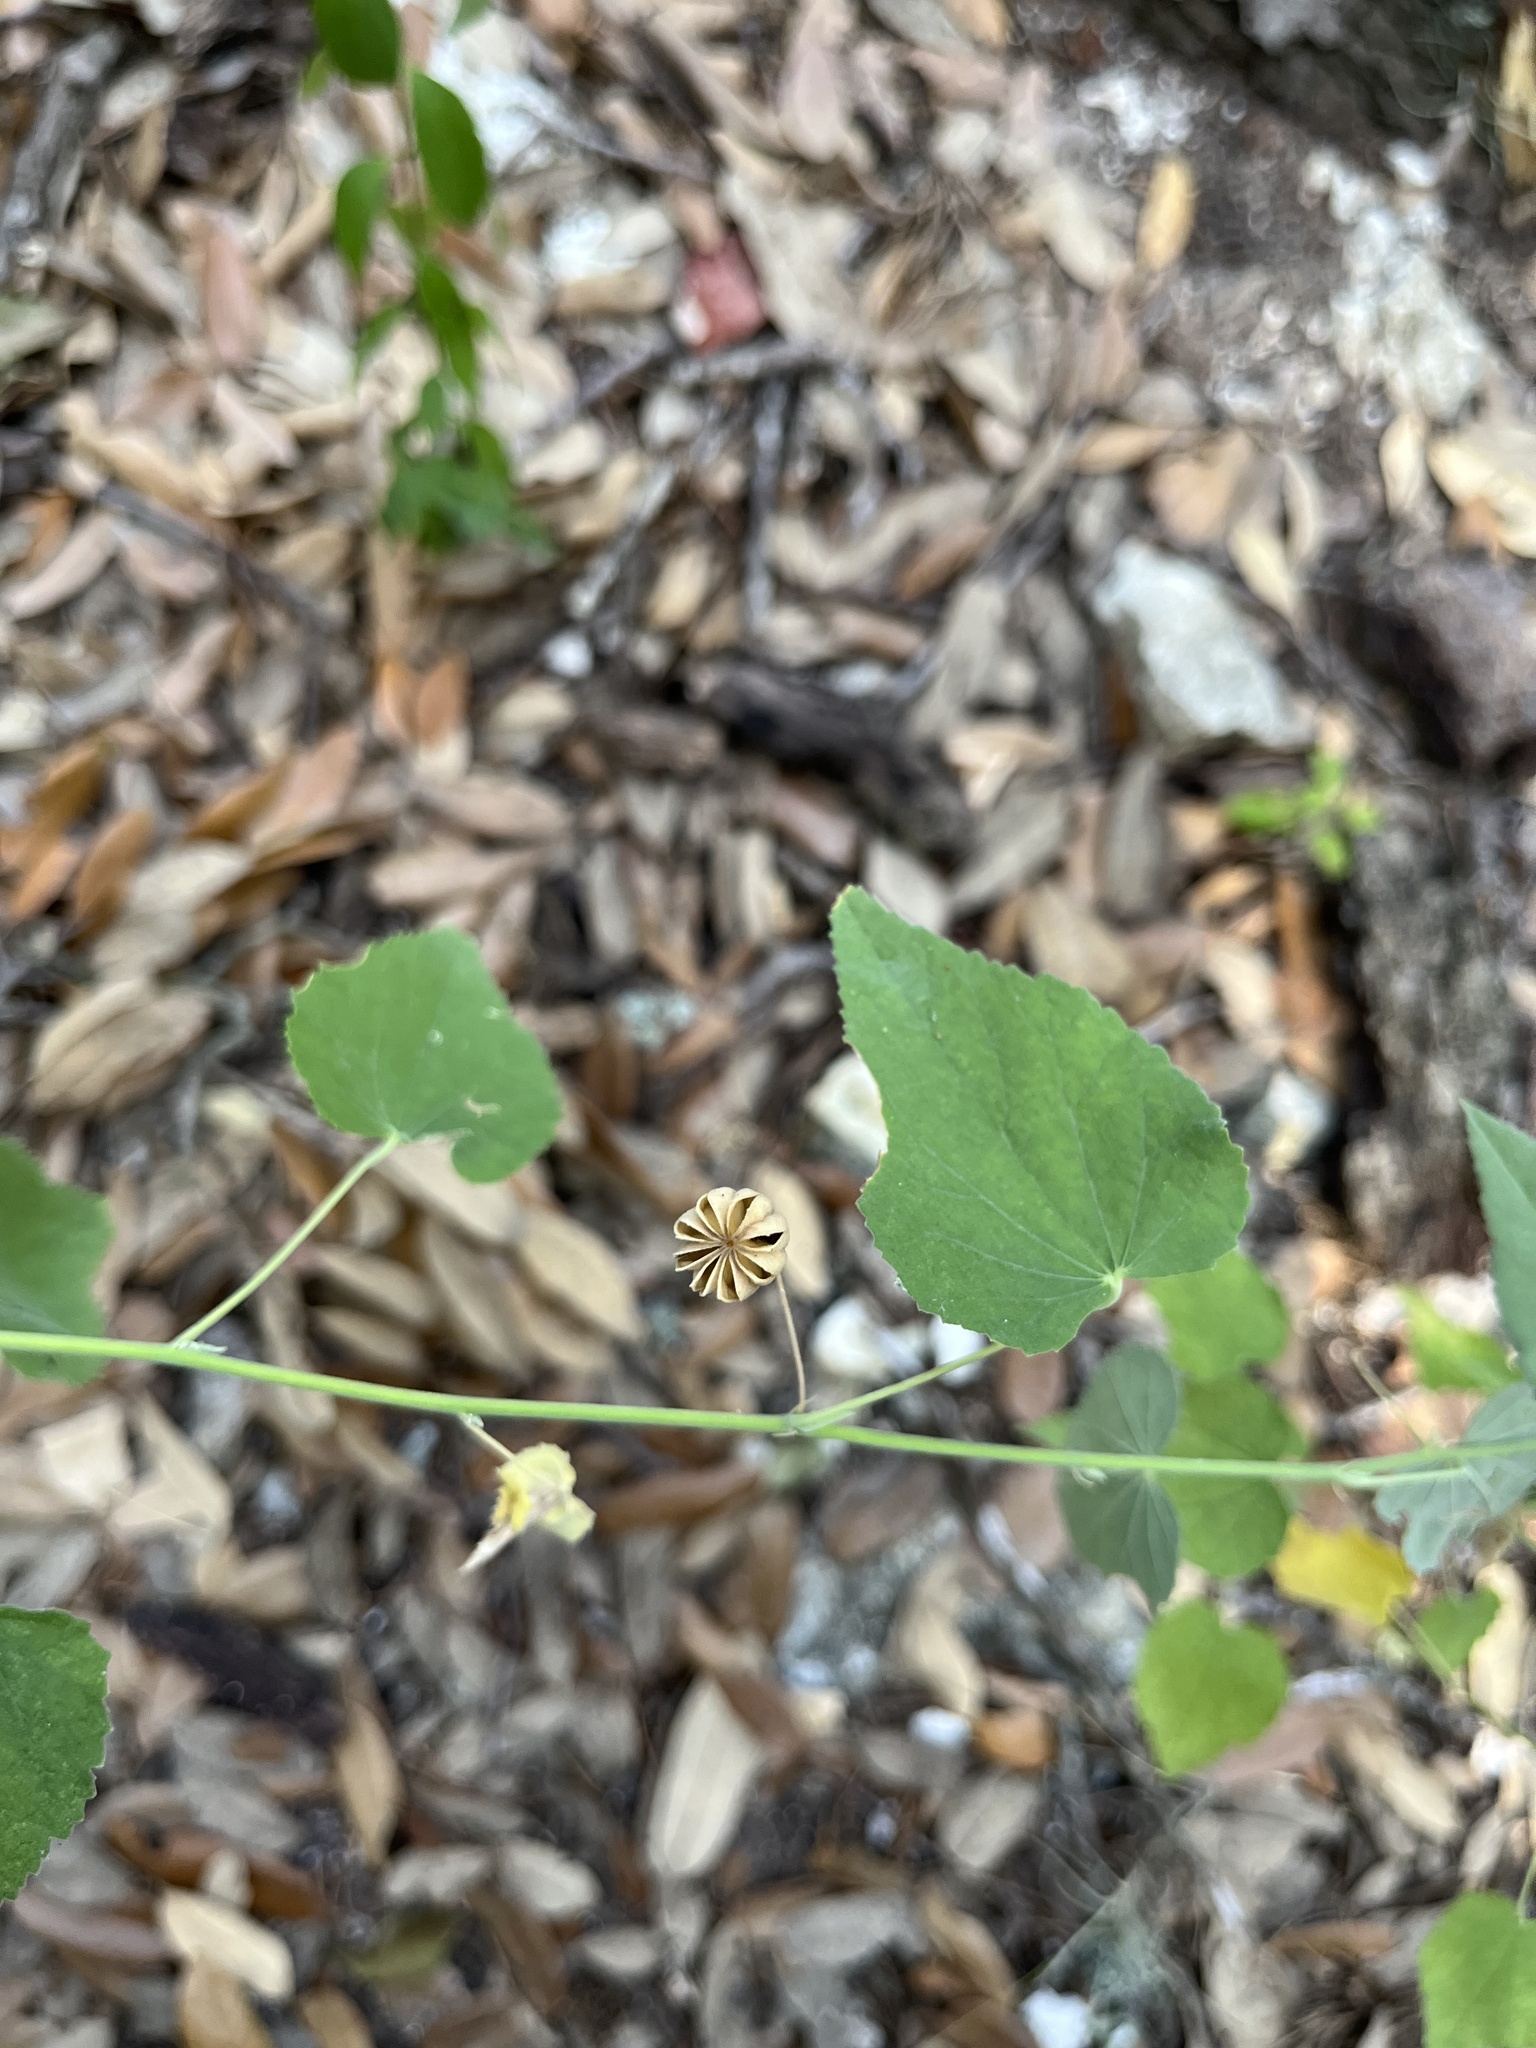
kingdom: Plantae
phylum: Tracheophyta
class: Magnoliopsida
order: Malvales
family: Malvaceae
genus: Abutilon
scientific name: Abutilon fruticosum
